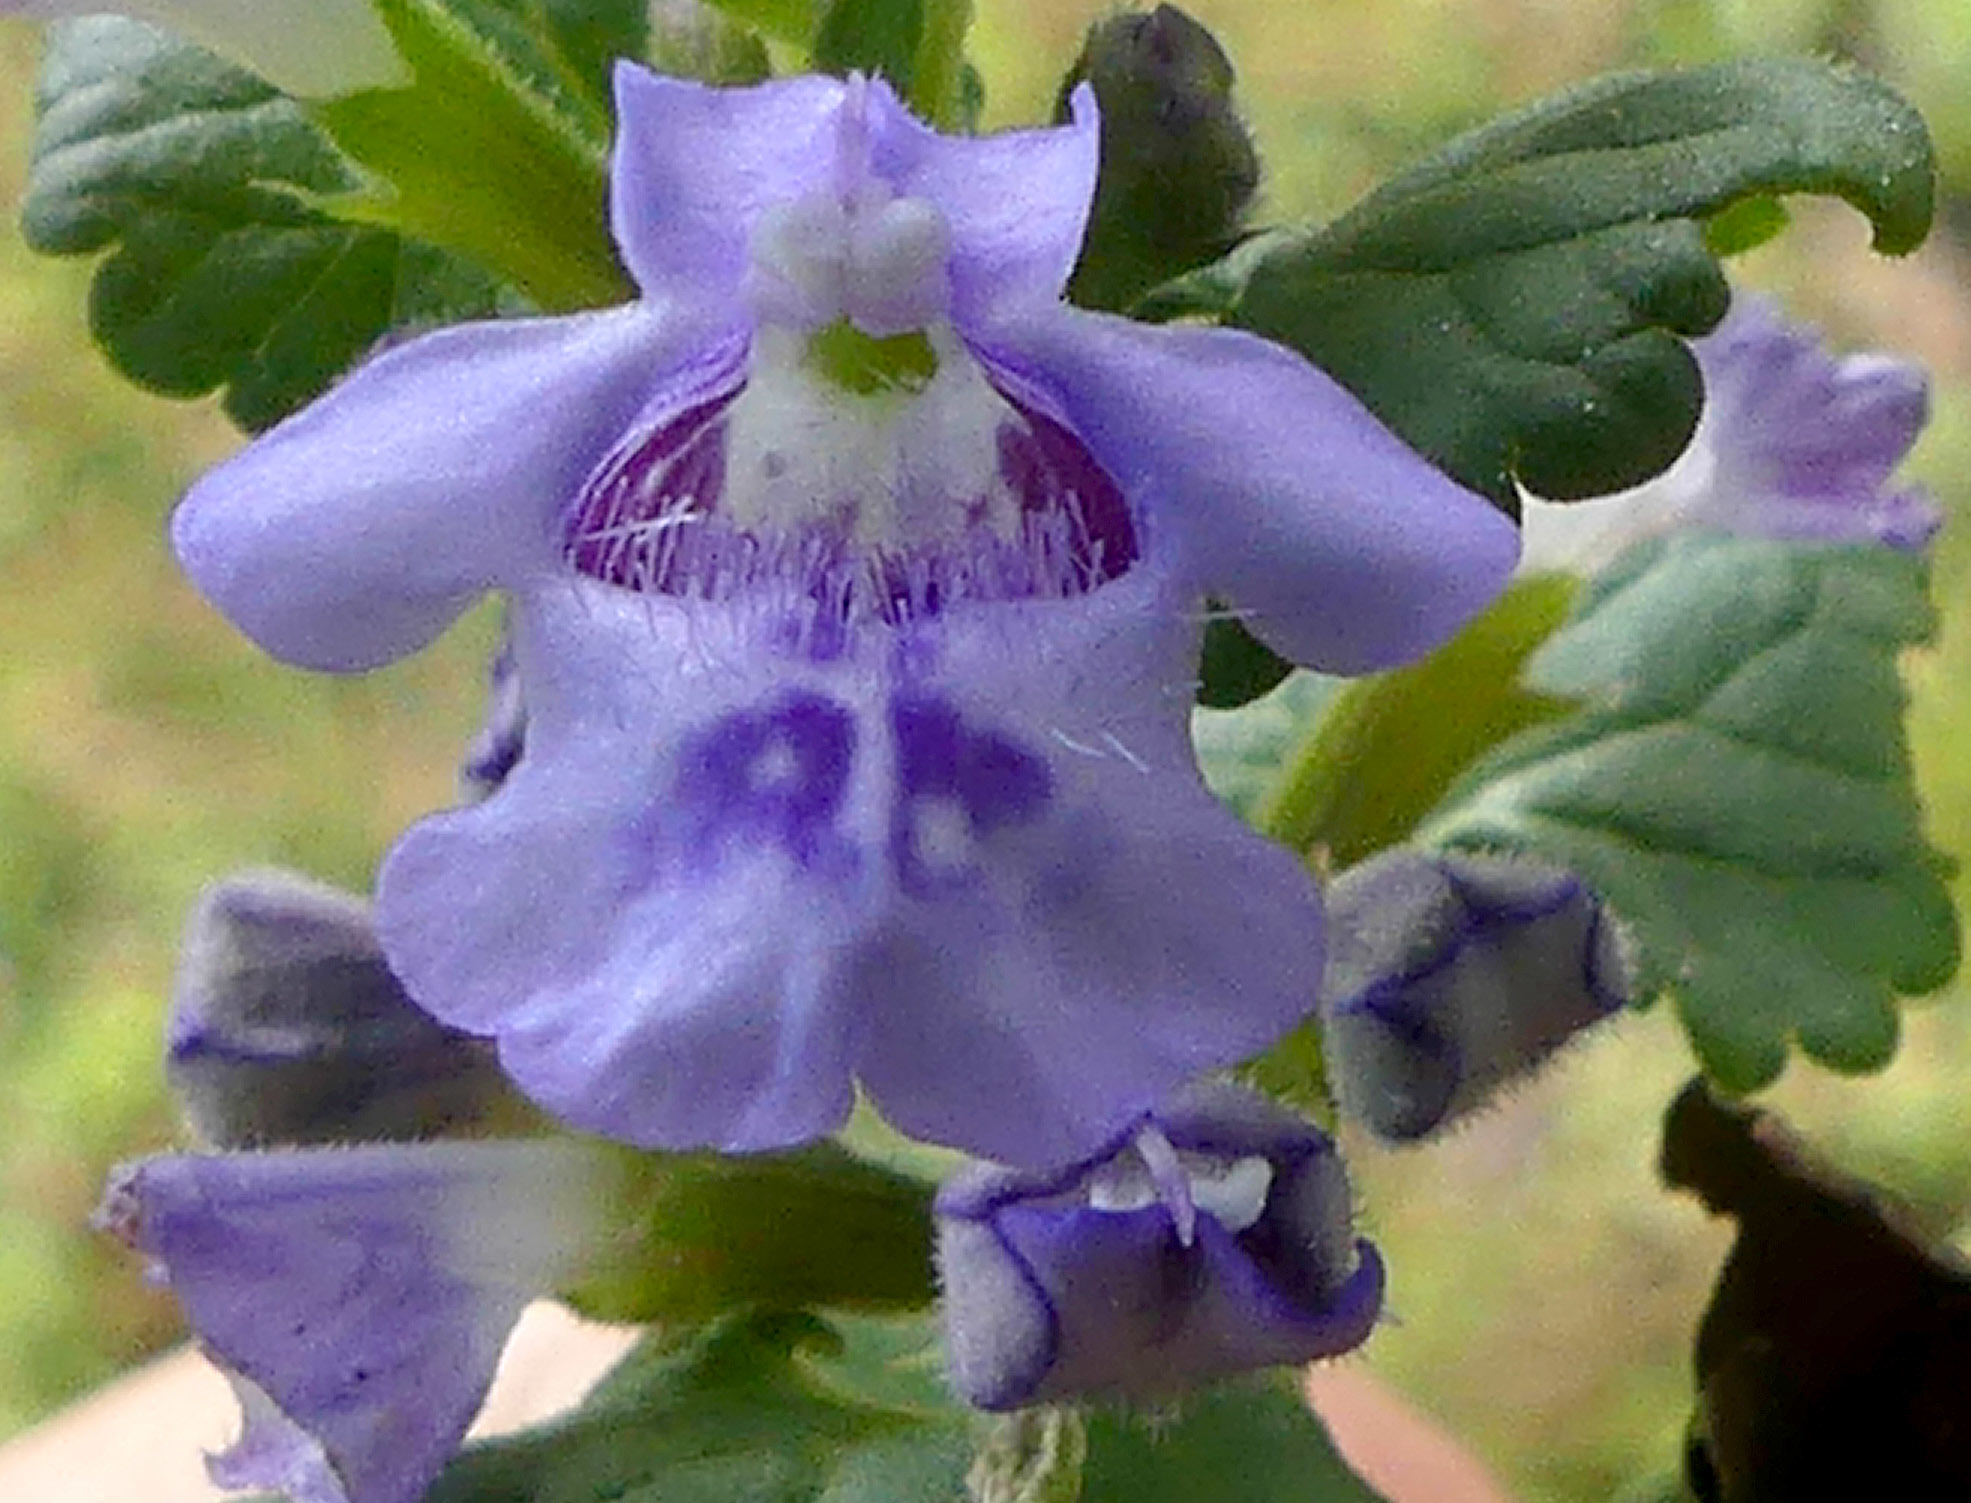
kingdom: Plantae
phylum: Tracheophyta
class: Magnoliopsida
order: Lamiales
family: Lamiaceae
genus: Glechoma
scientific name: Glechoma hederacea
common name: Ground ivy
